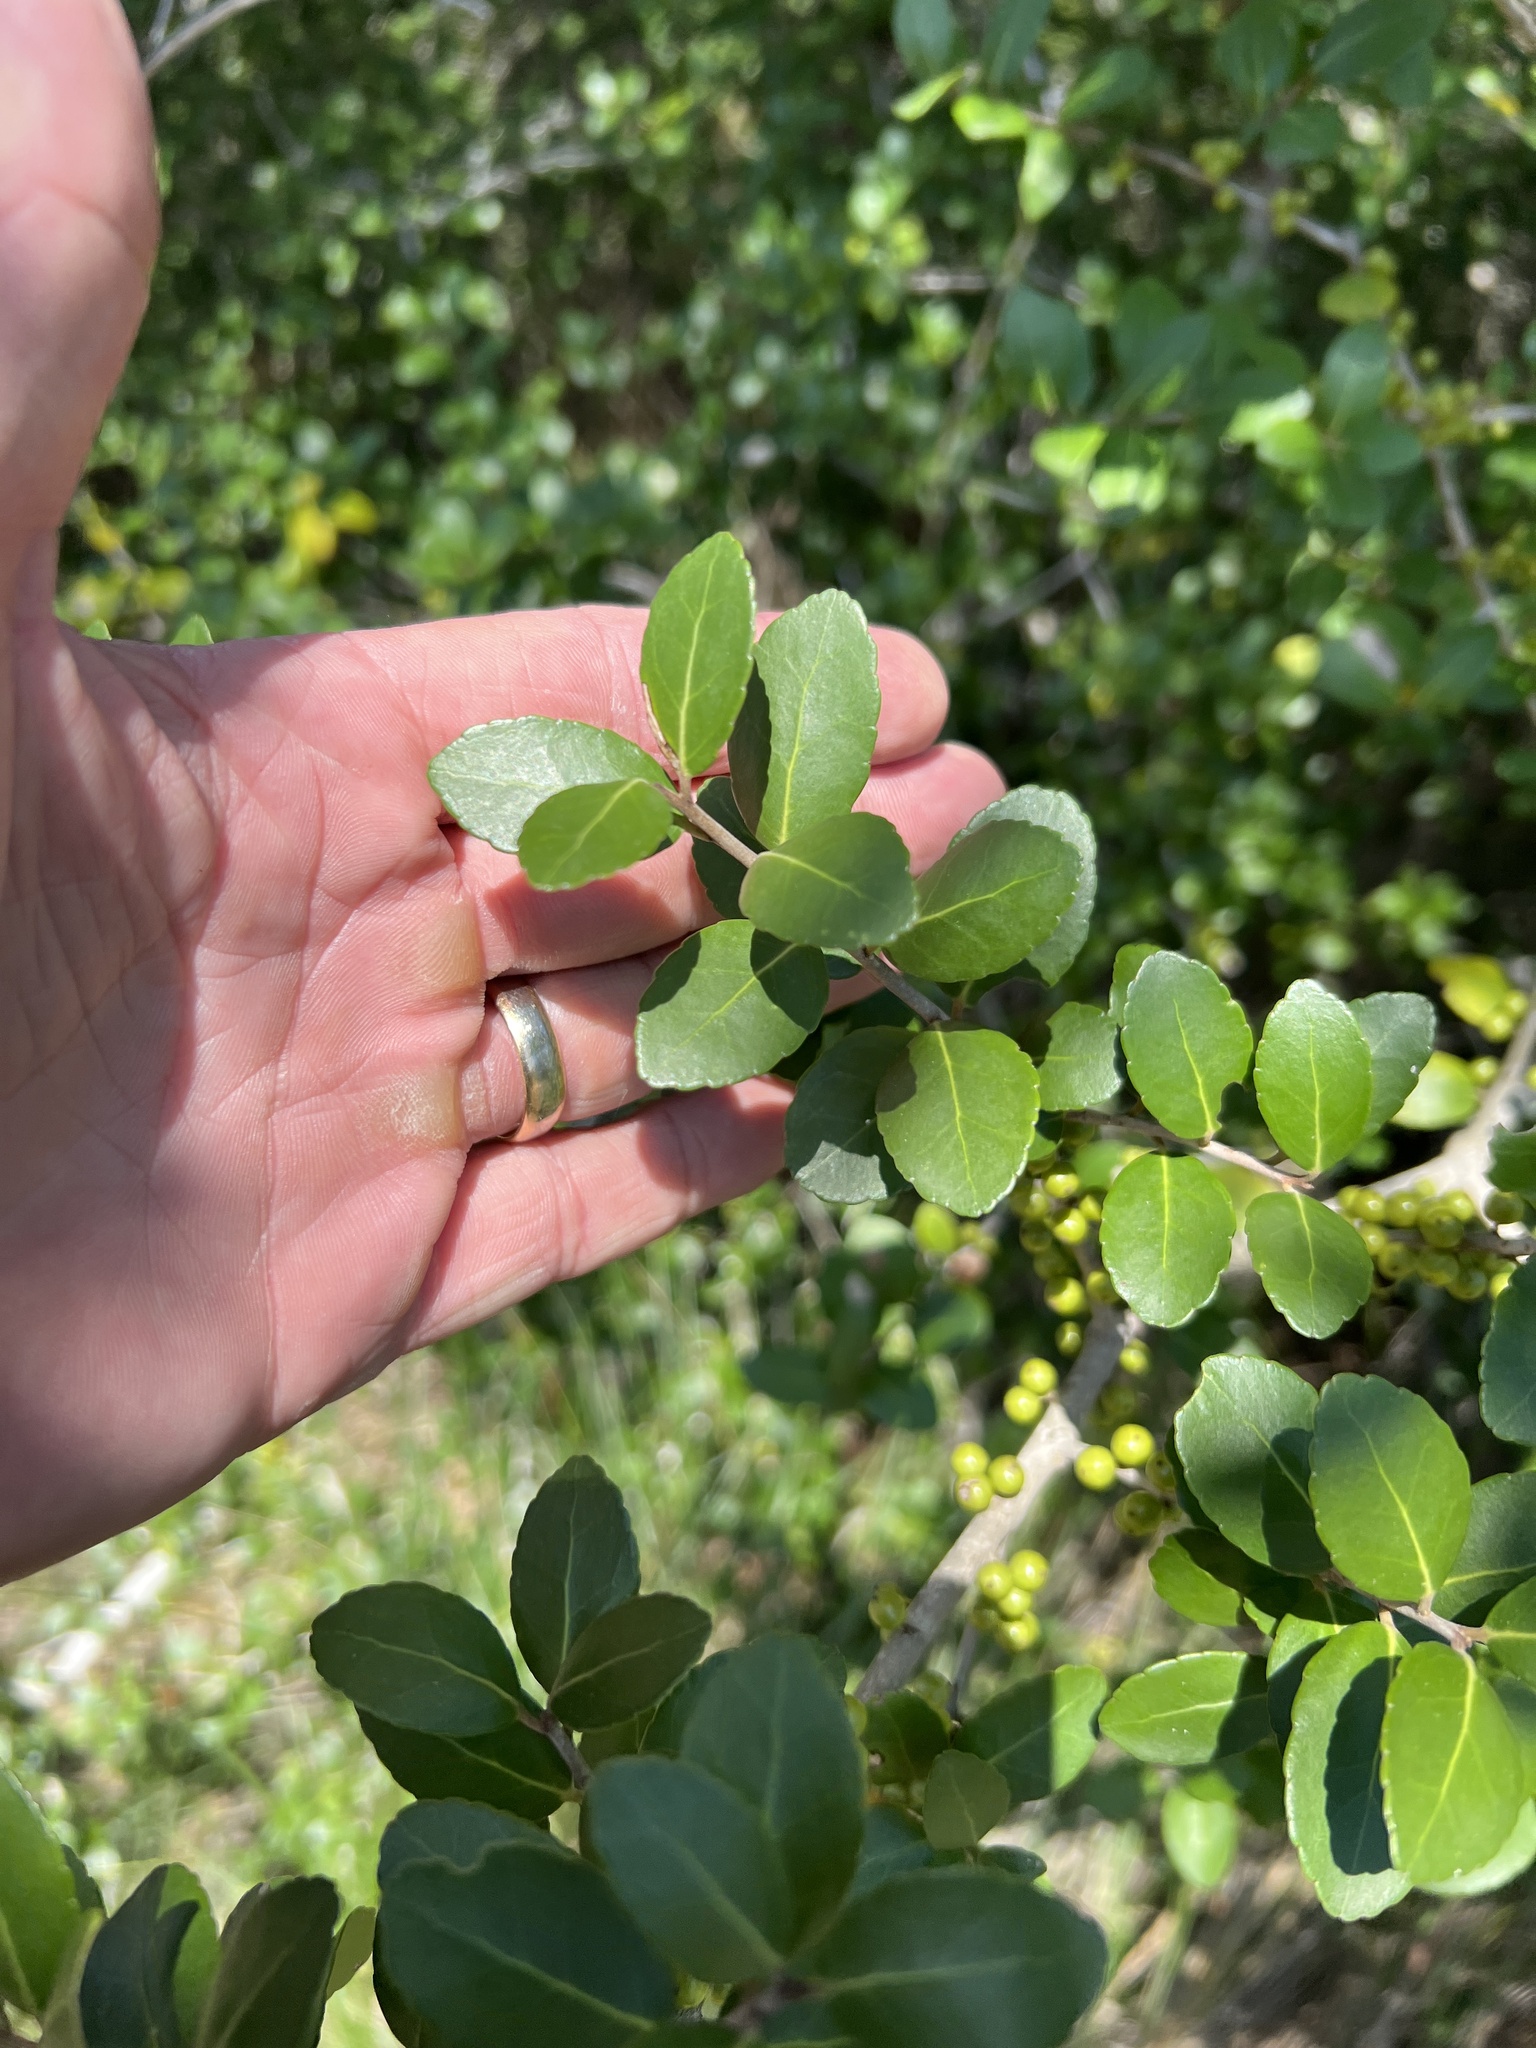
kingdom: Plantae
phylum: Tracheophyta
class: Magnoliopsida
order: Aquifoliales
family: Aquifoliaceae
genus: Ilex
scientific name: Ilex vomitoria
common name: Yaupon holly
